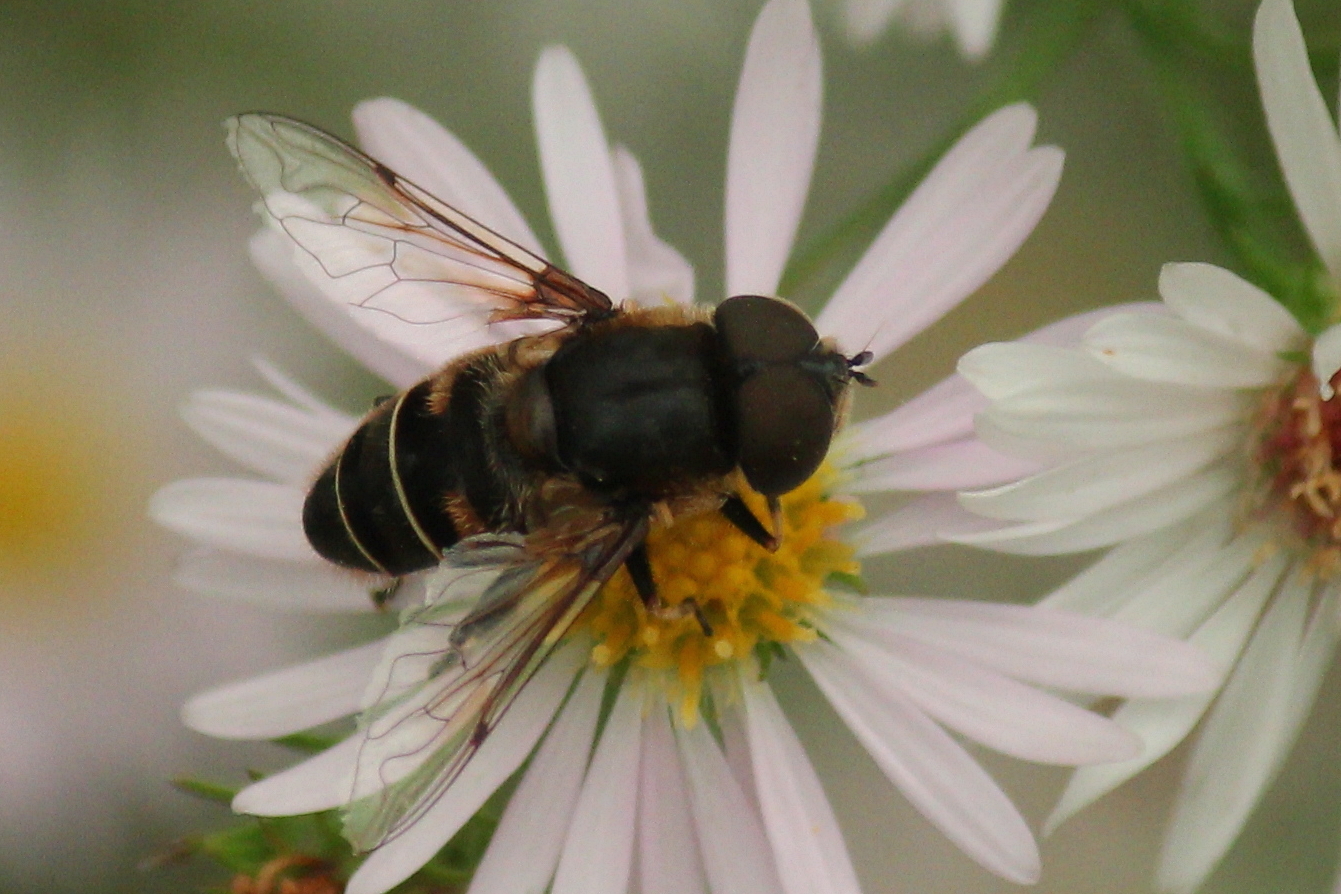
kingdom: Animalia
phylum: Arthropoda
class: Insecta
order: Diptera
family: Syrphidae
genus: Eristalis
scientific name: Eristalis dimidiata
